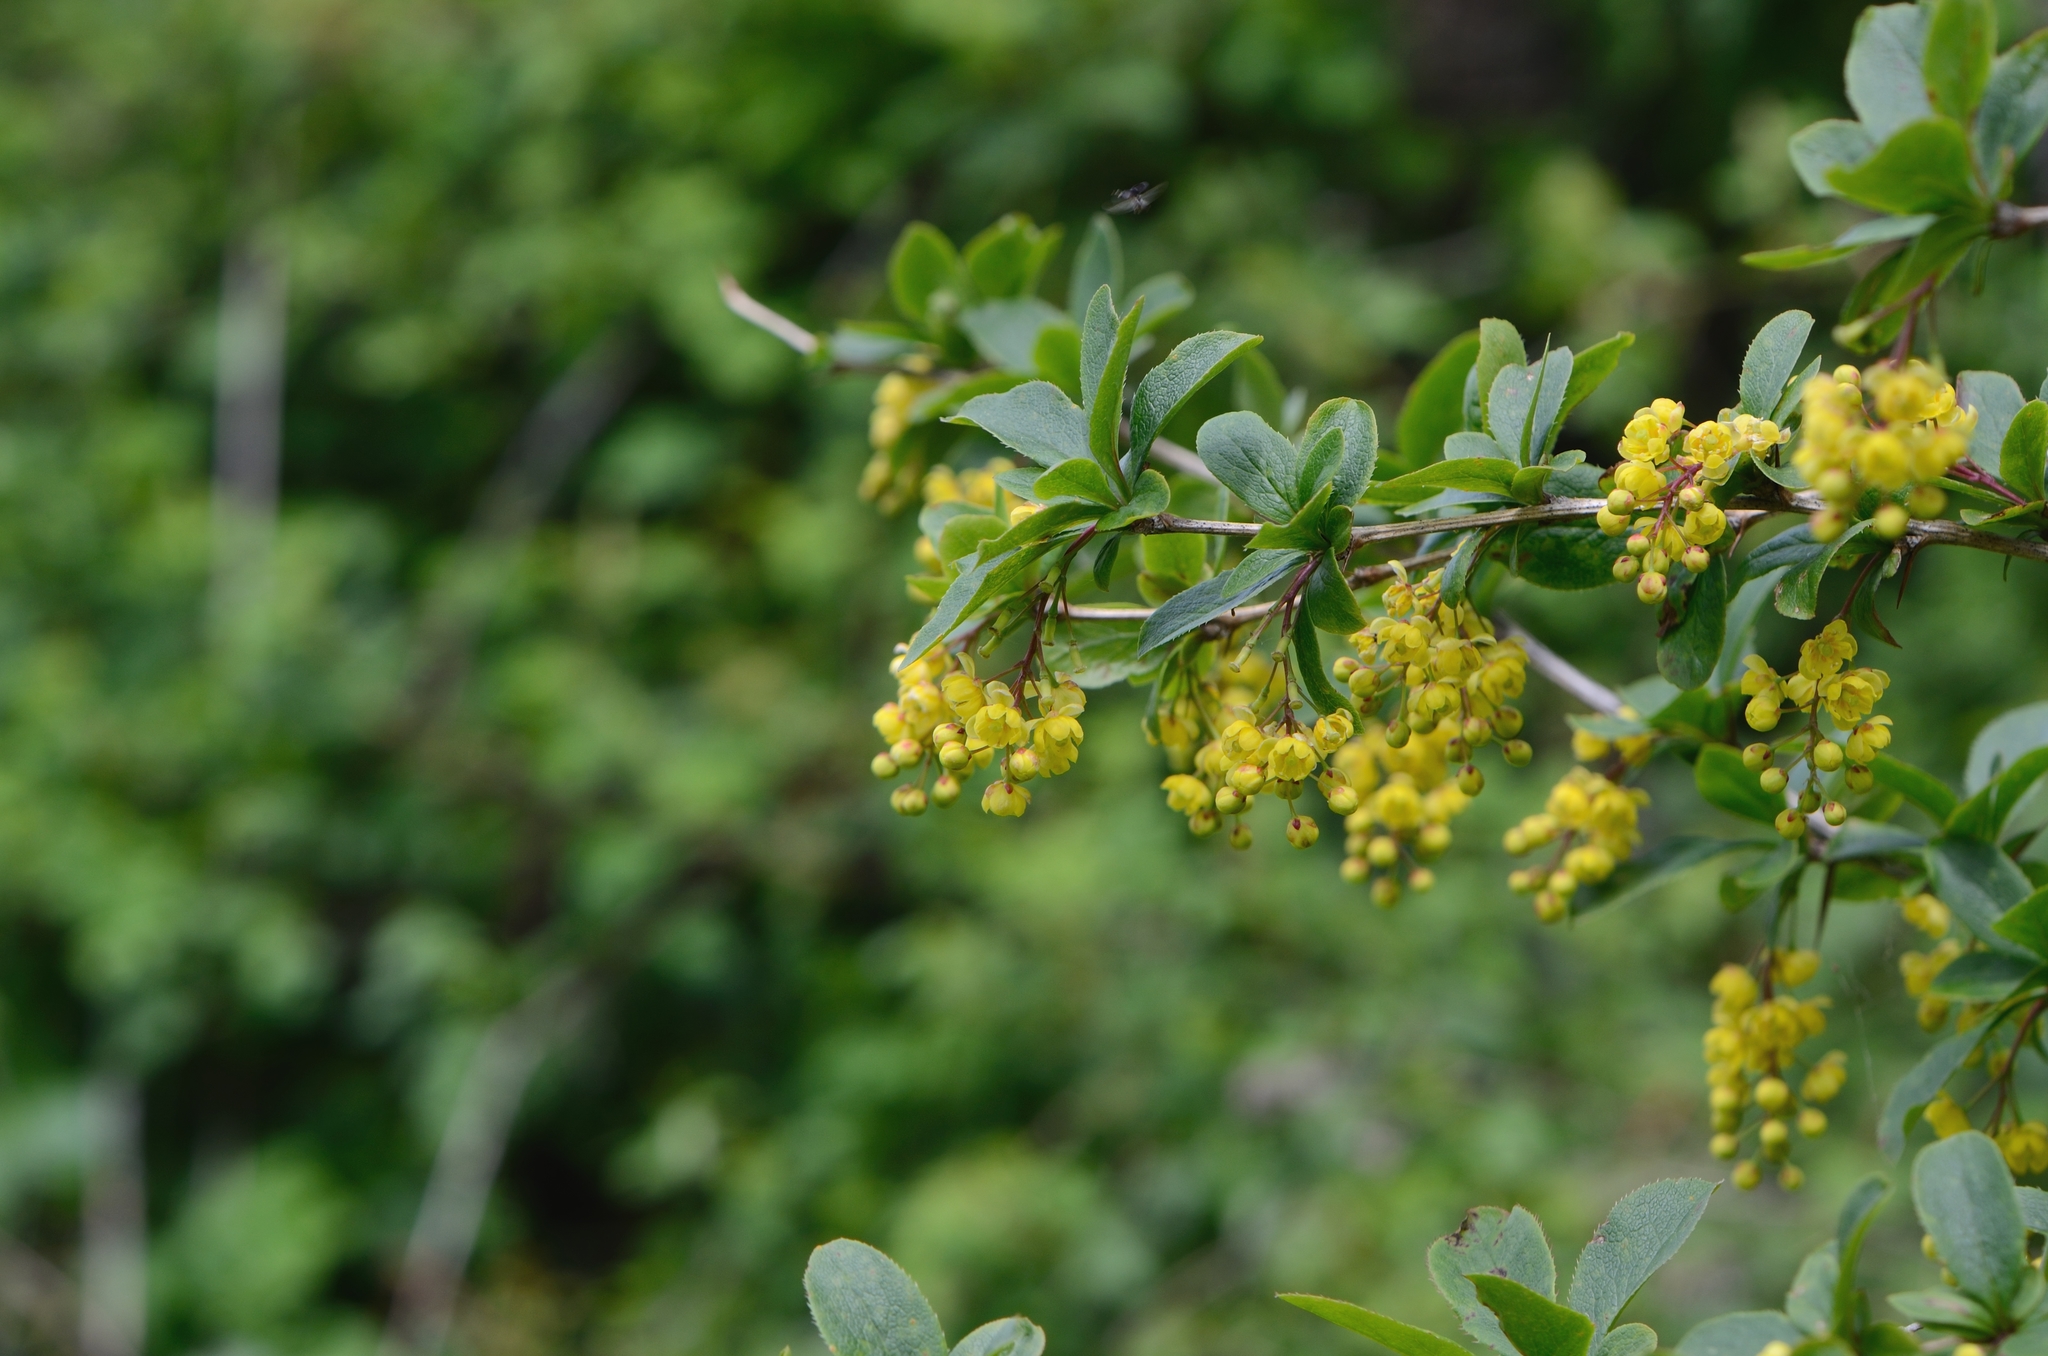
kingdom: Plantae
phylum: Tracheophyta
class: Magnoliopsida
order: Ranunculales
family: Berberidaceae
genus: Berberis
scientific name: Berberis vulgaris
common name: Barberry
